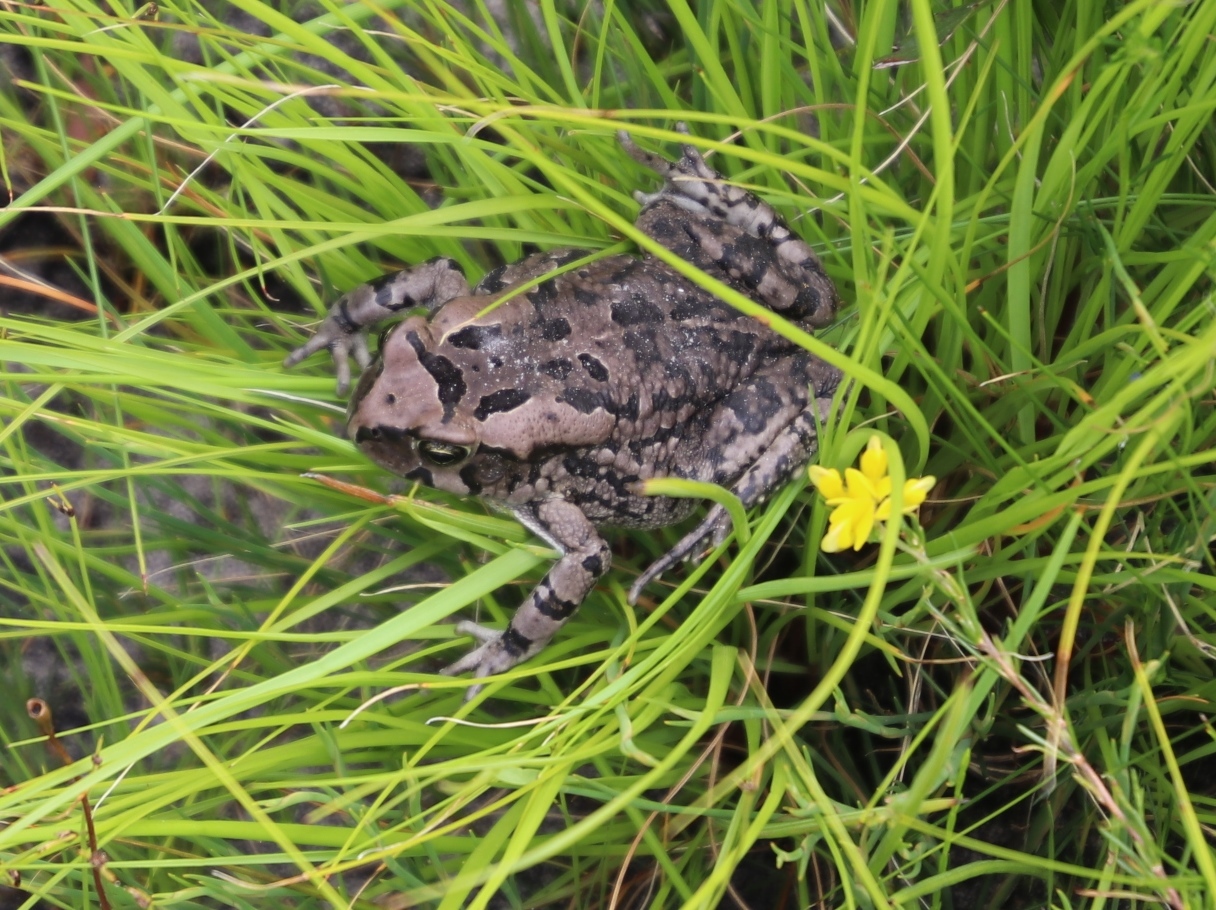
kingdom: Animalia
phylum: Chordata
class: Amphibia
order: Anura
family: Bufonidae
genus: Sclerophrys
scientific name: Sclerophrys capensis
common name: Ranger’s toad
